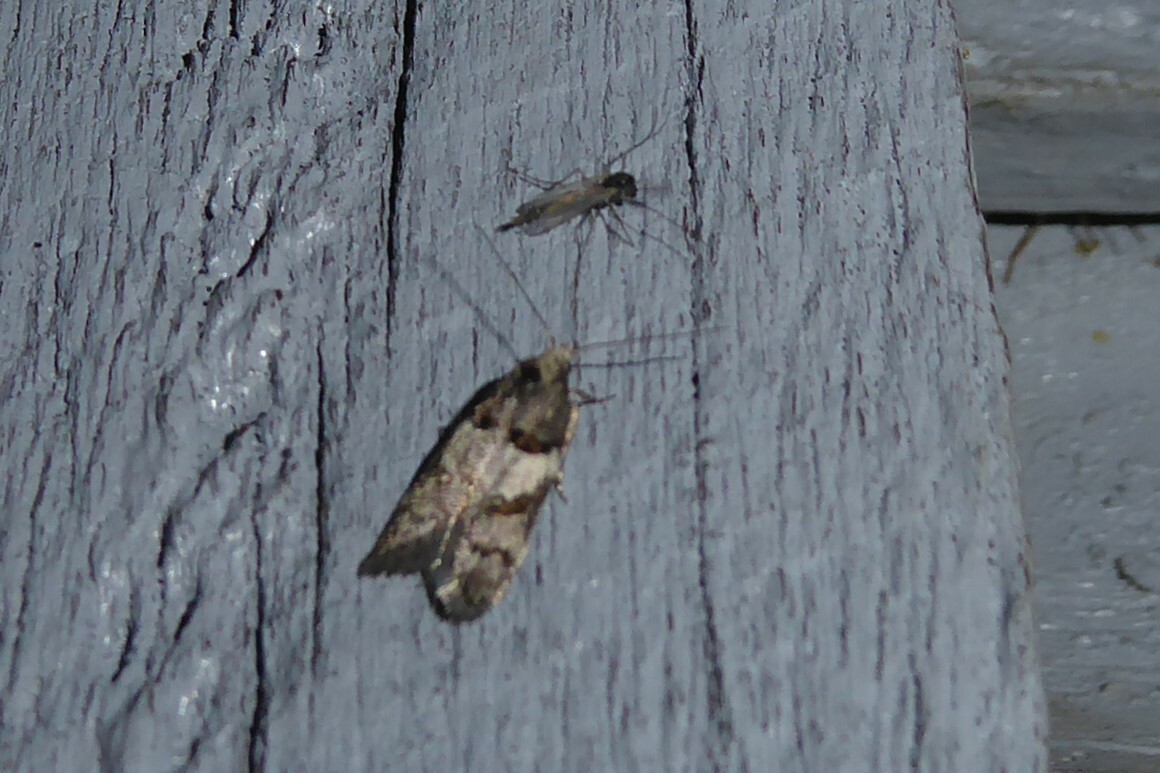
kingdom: Animalia
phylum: Arthropoda
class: Insecta
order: Lepidoptera
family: Oecophoridae
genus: Trachypepla
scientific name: Trachypepla contritella
